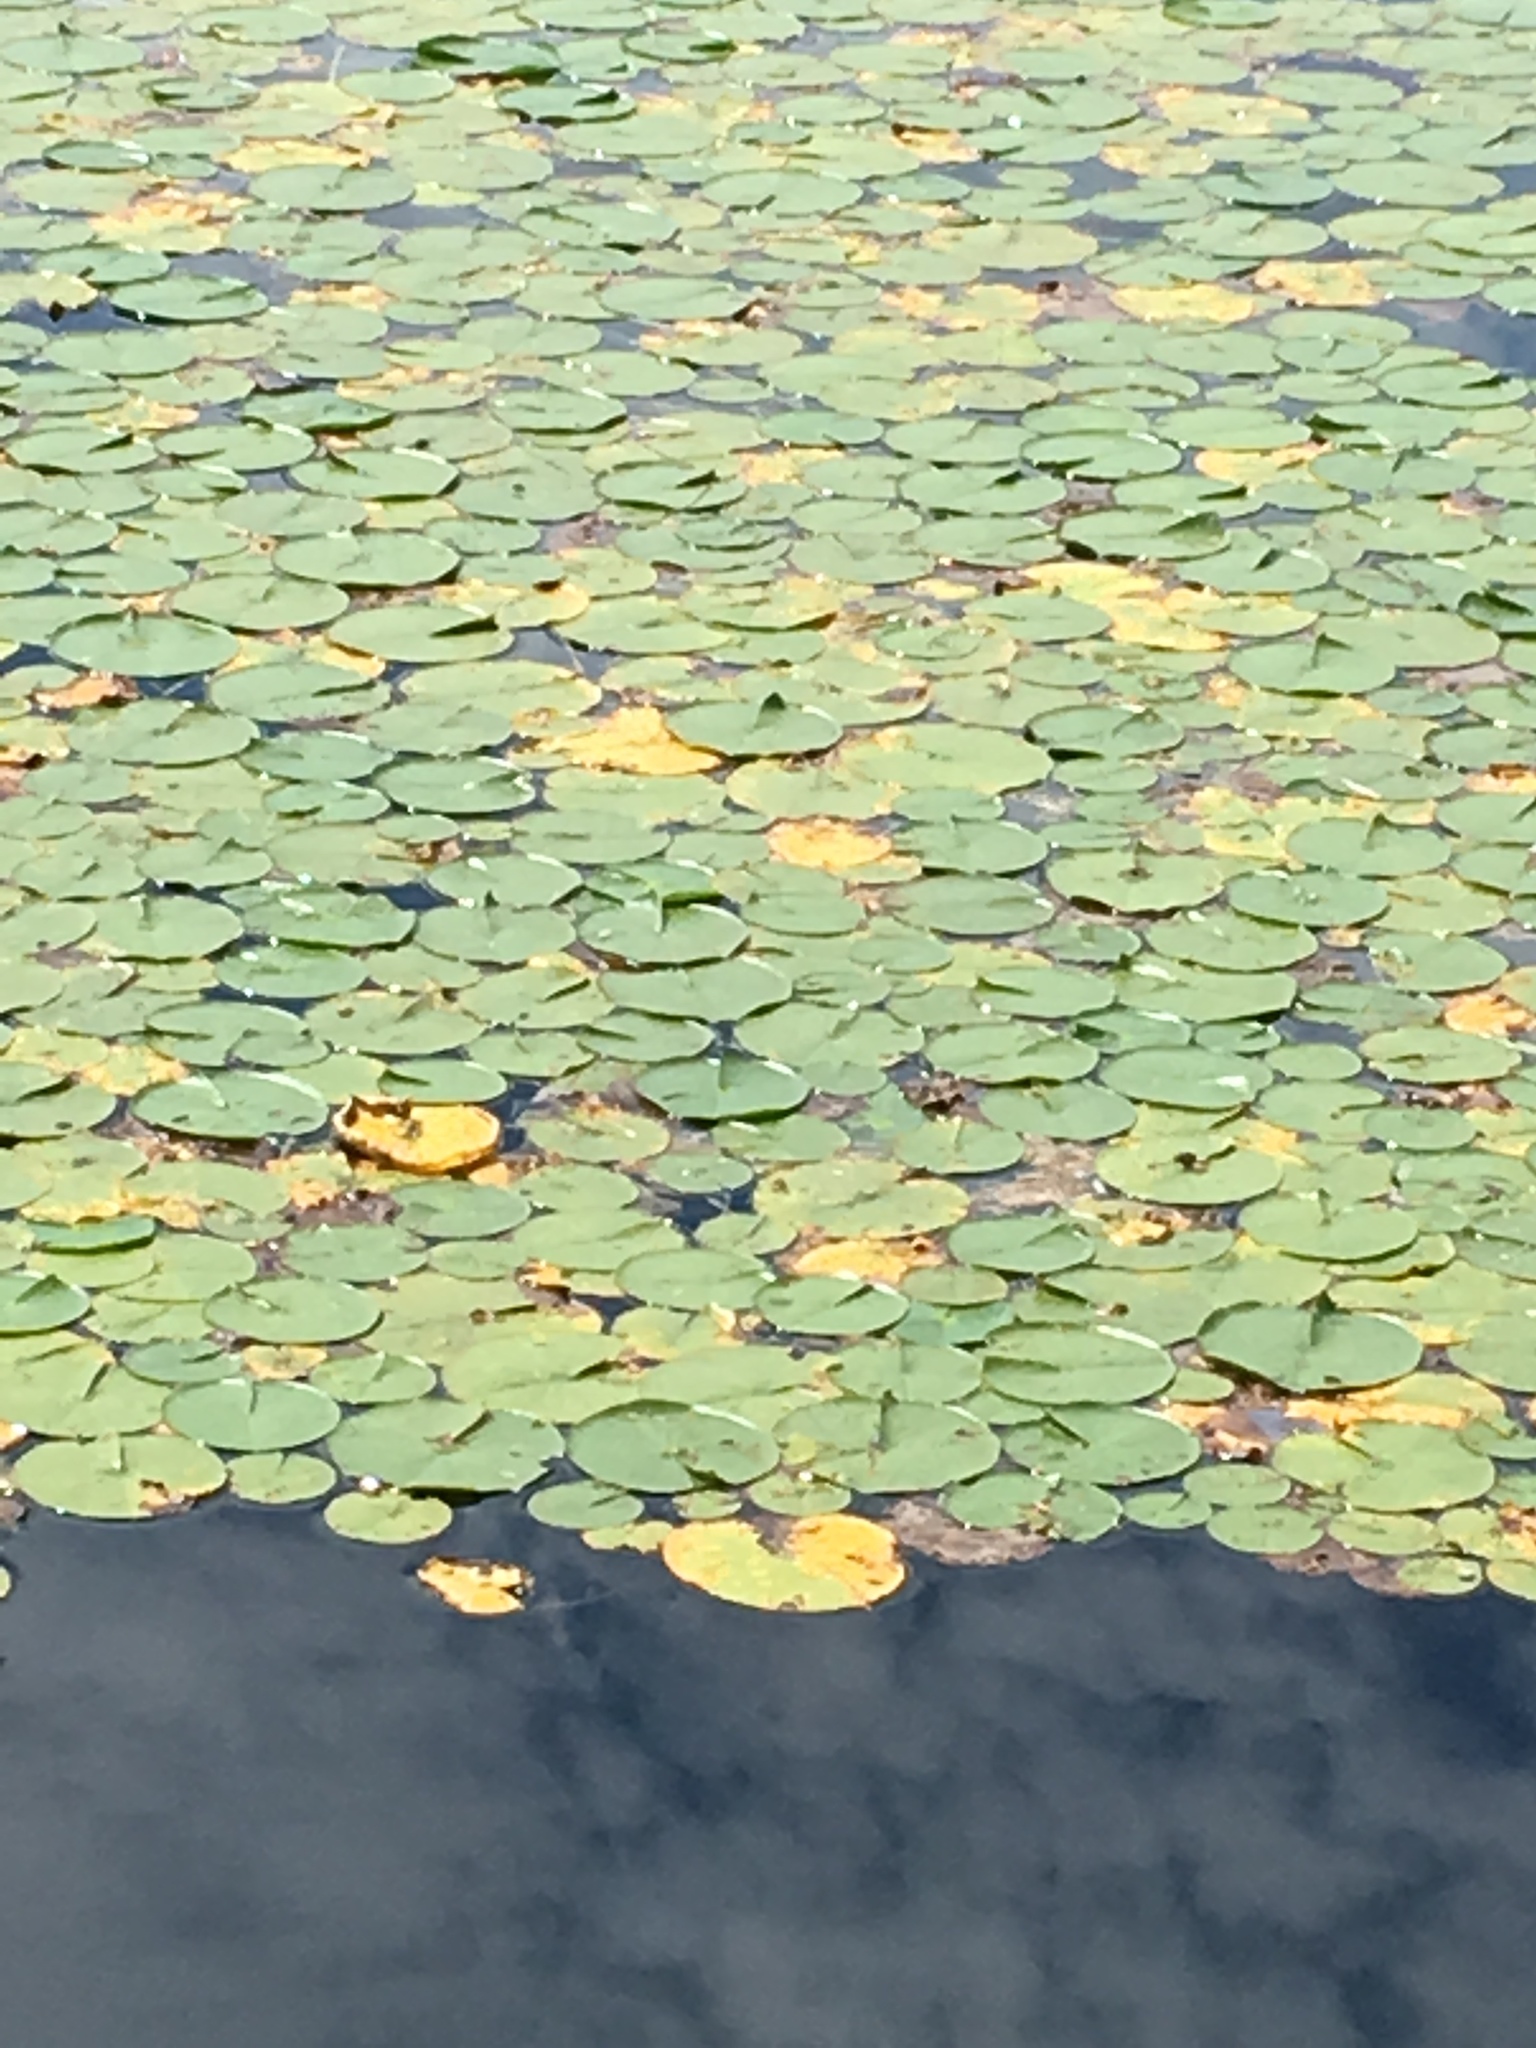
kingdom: Plantae
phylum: Tracheophyta
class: Magnoliopsida
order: Nymphaeales
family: Nymphaeaceae
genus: Nymphaea
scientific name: Nymphaea odorata
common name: Fragrant water-lily
